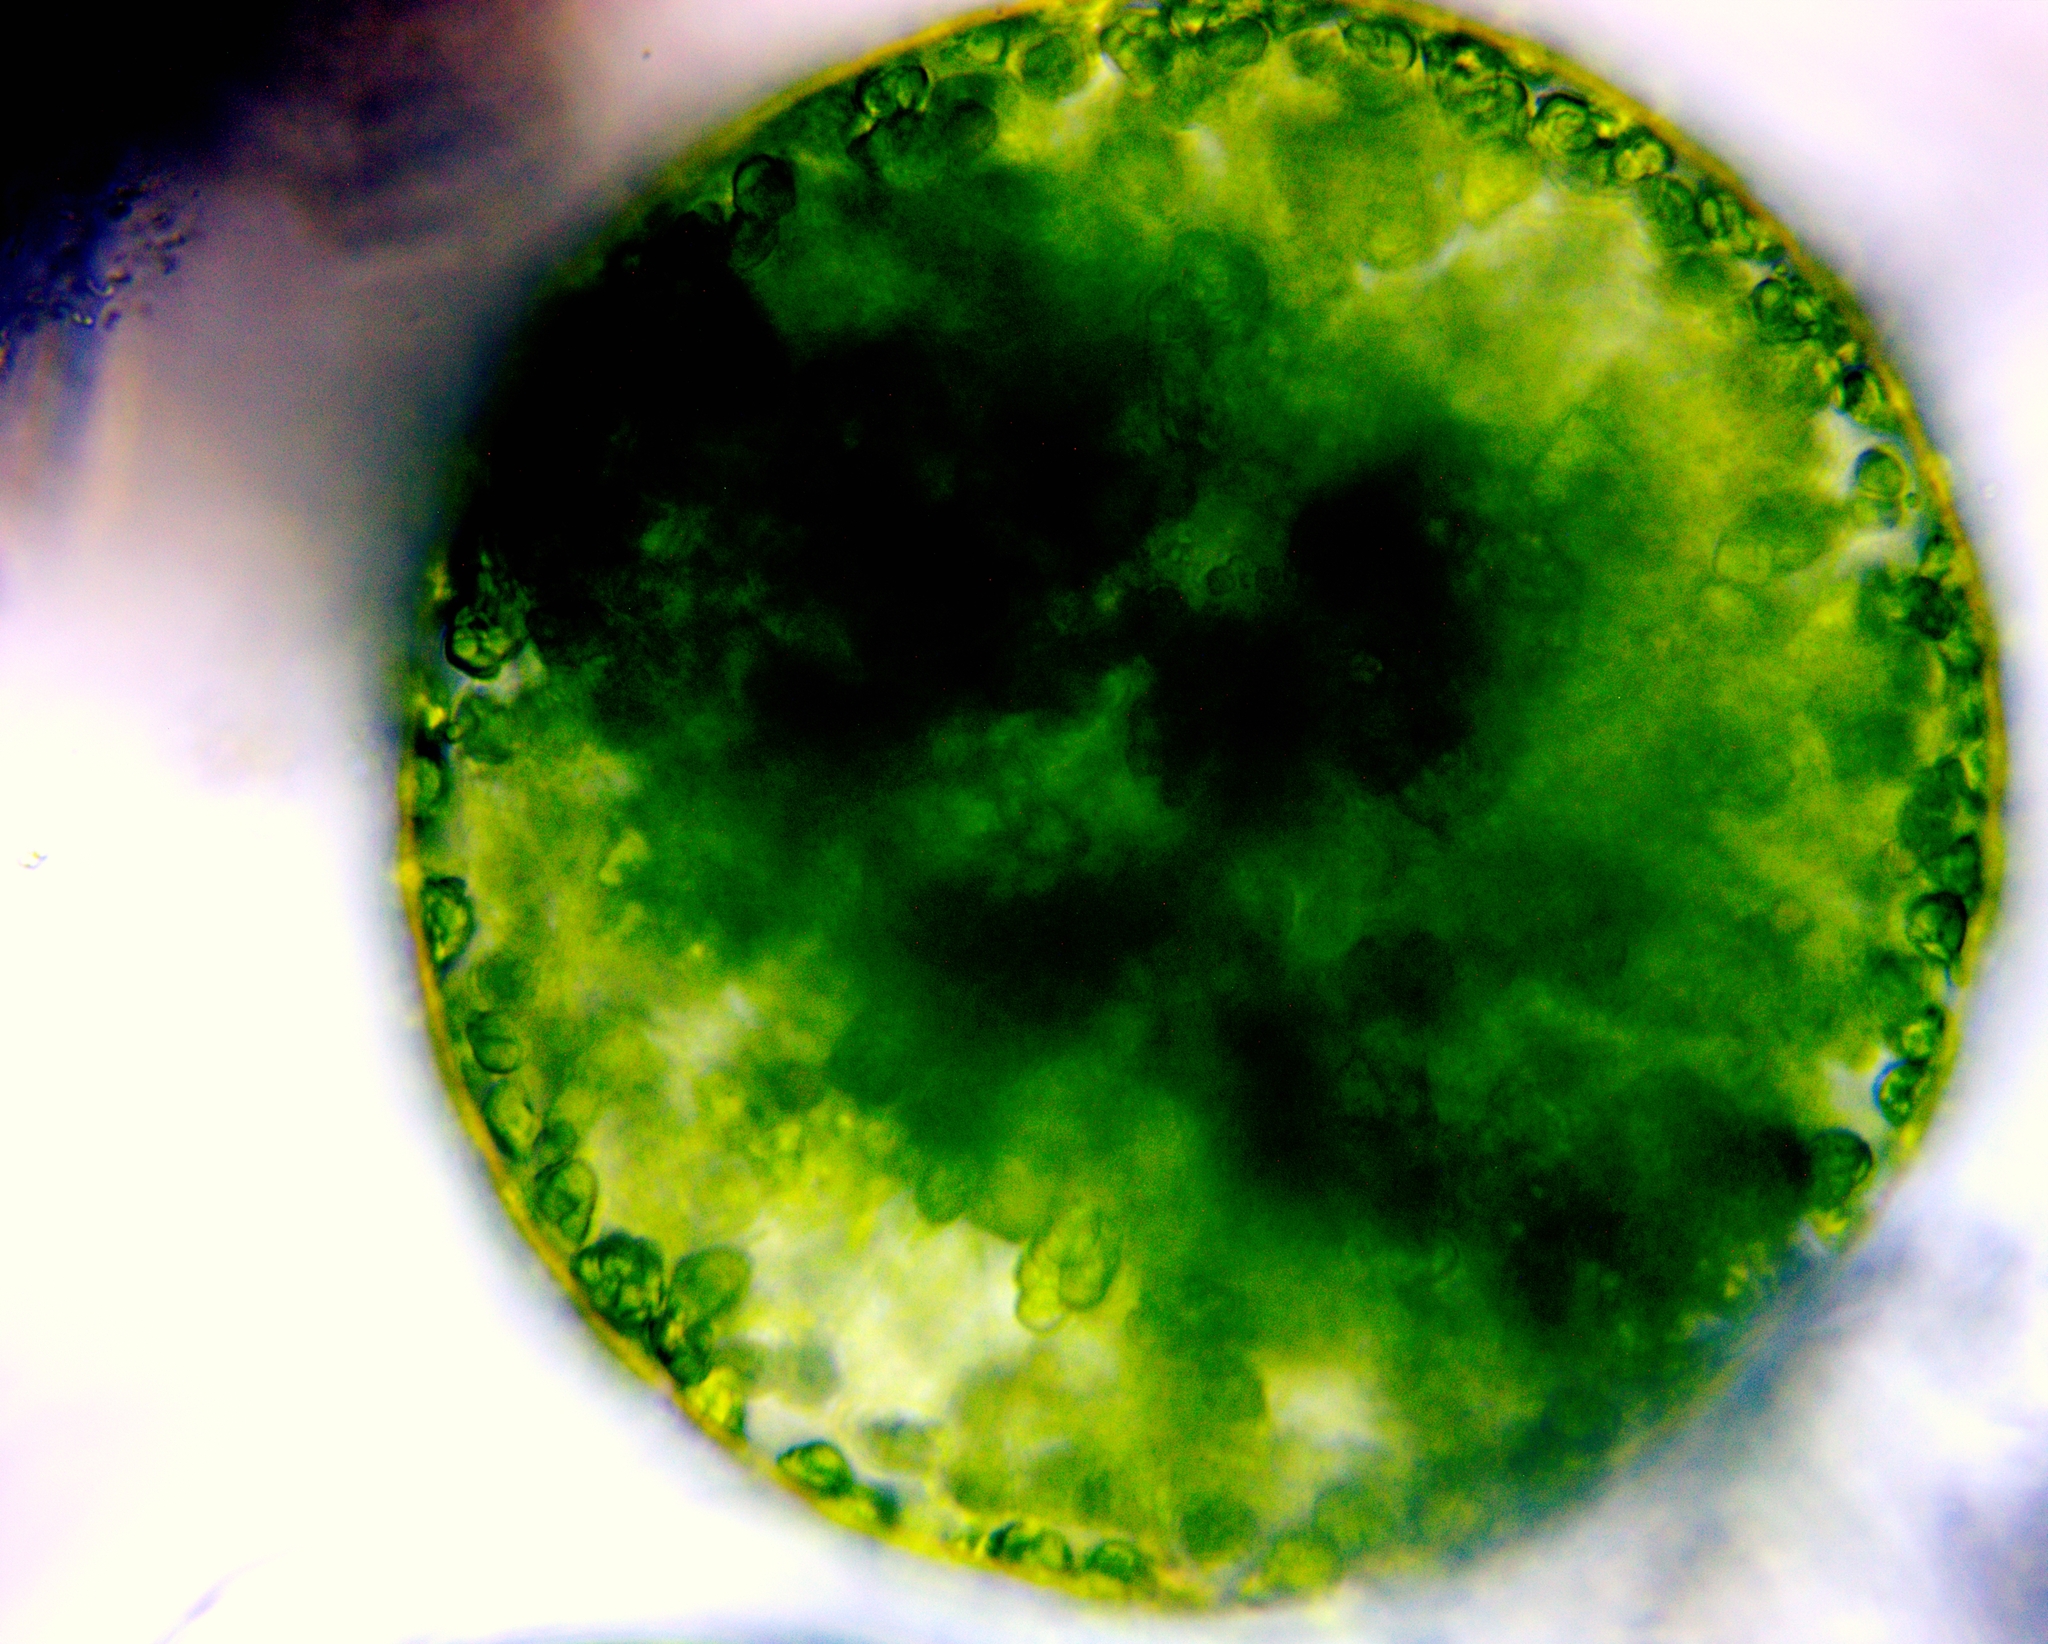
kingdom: Plantae
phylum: Chlorophyta
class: Trebouxiophyceae
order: Oocystales
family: Oocystaceae
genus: Eremosphaera
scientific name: Eremosphaera viridis
